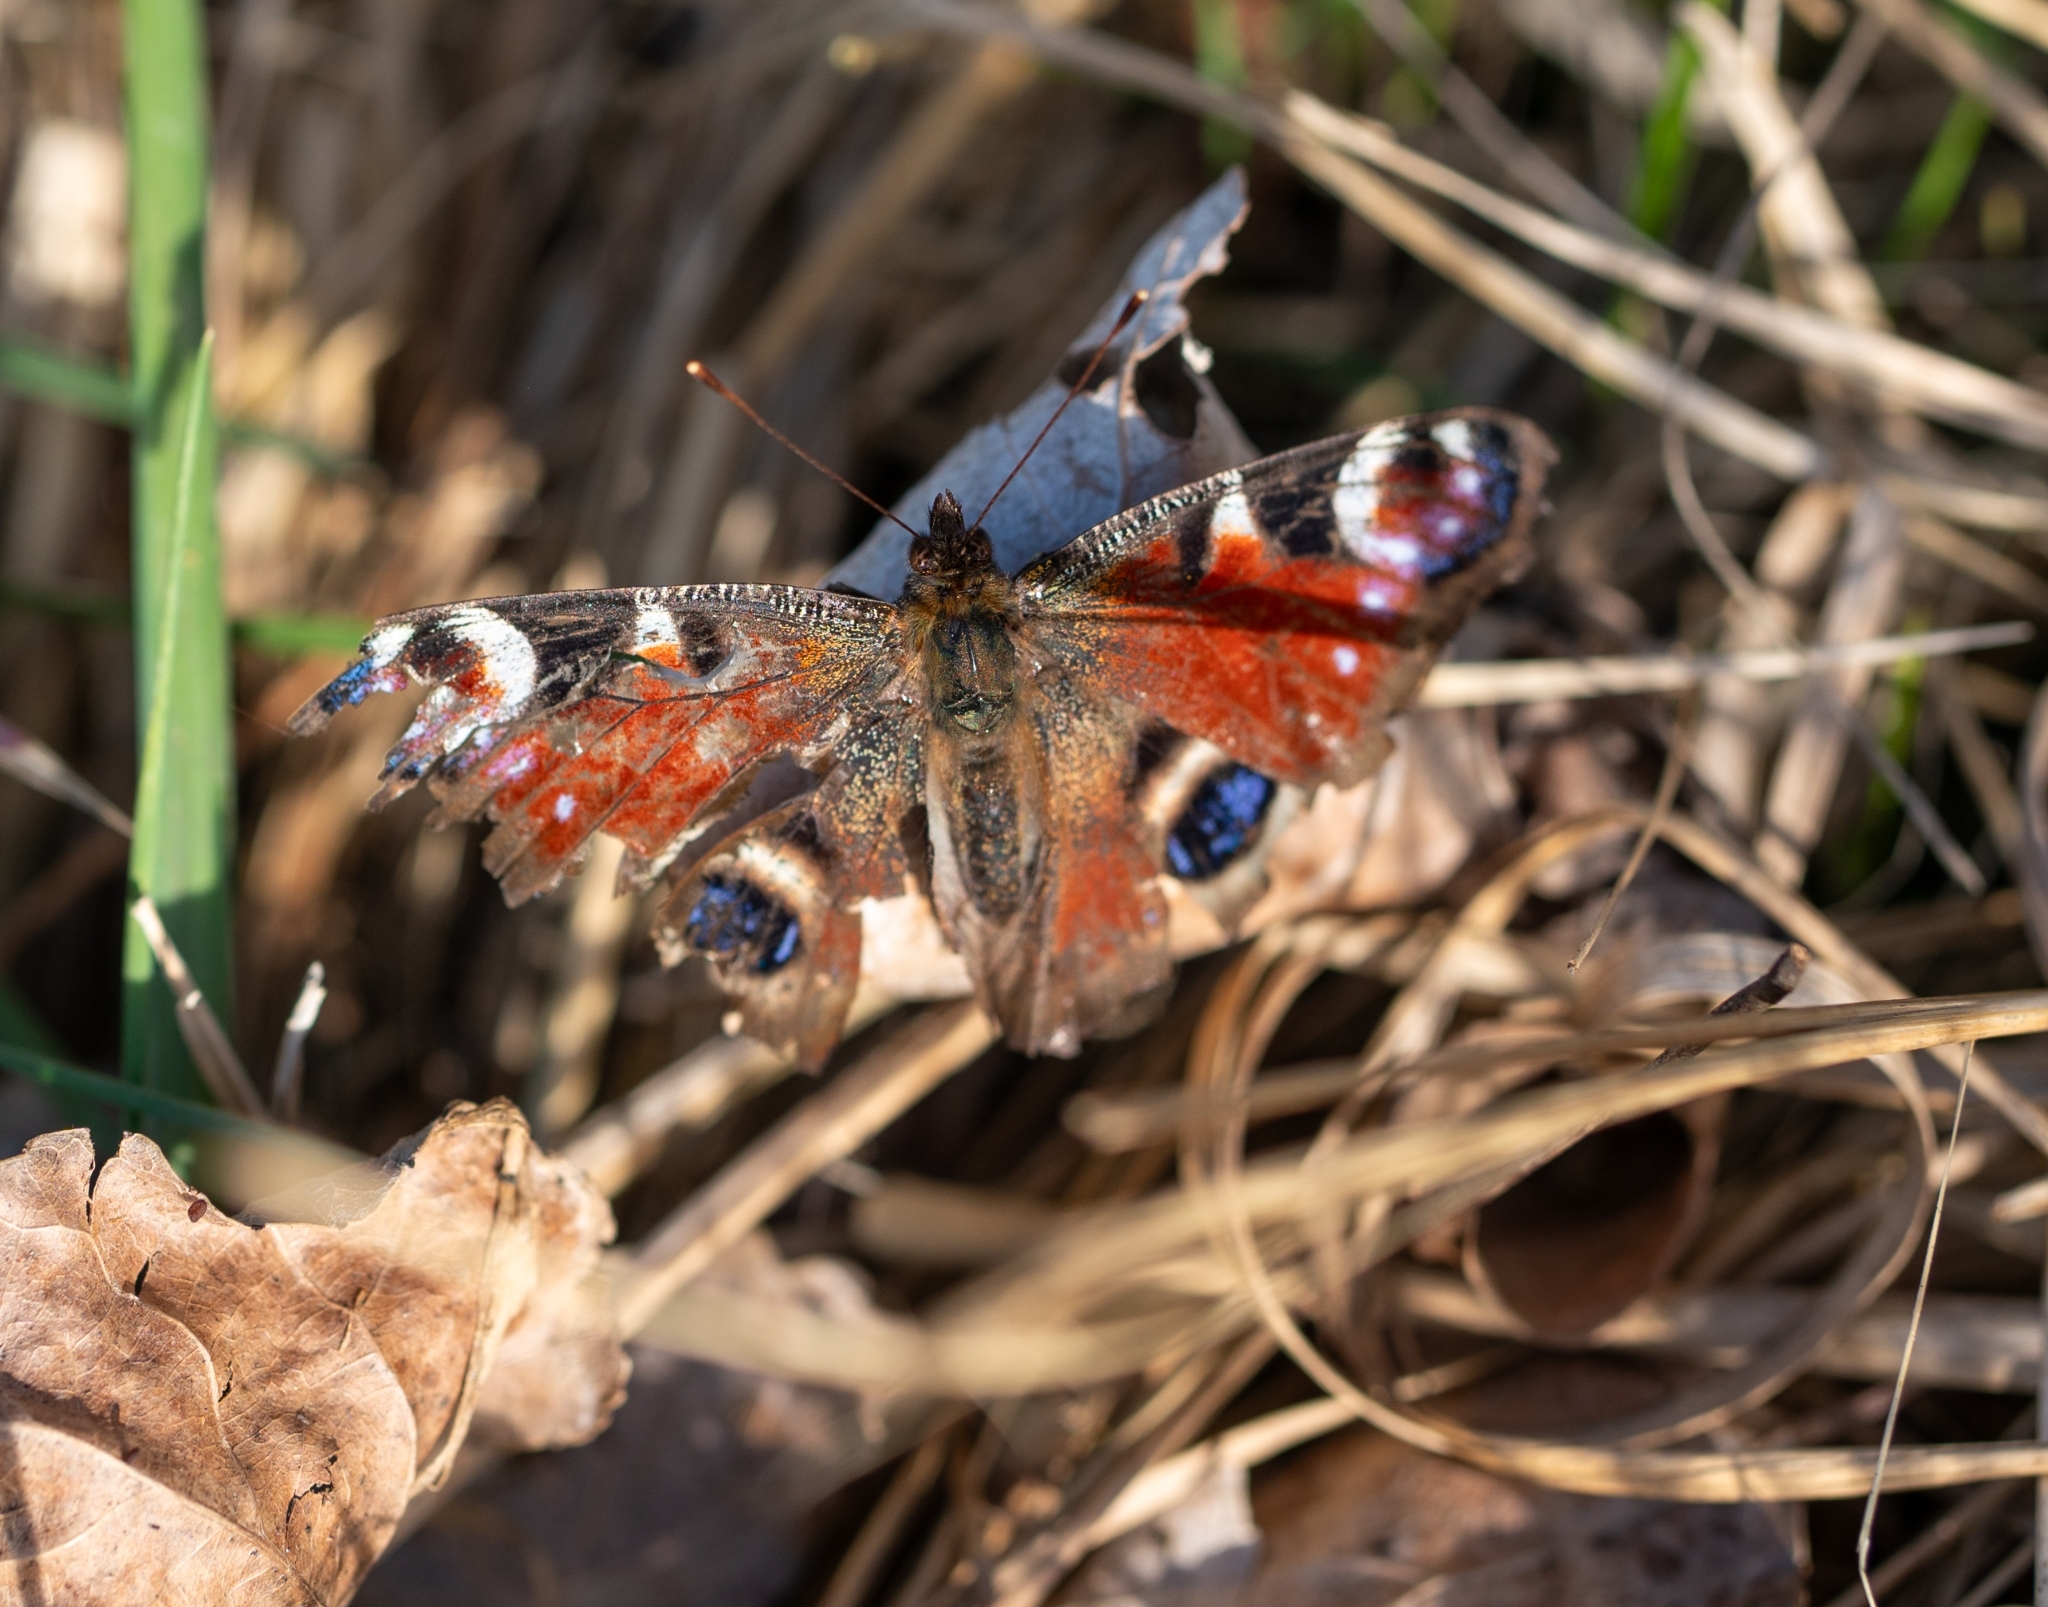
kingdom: Animalia
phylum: Arthropoda
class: Insecta
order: Lepidoptera
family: Nymphalidae
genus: Aglais
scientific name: Aglais io
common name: Peacock
